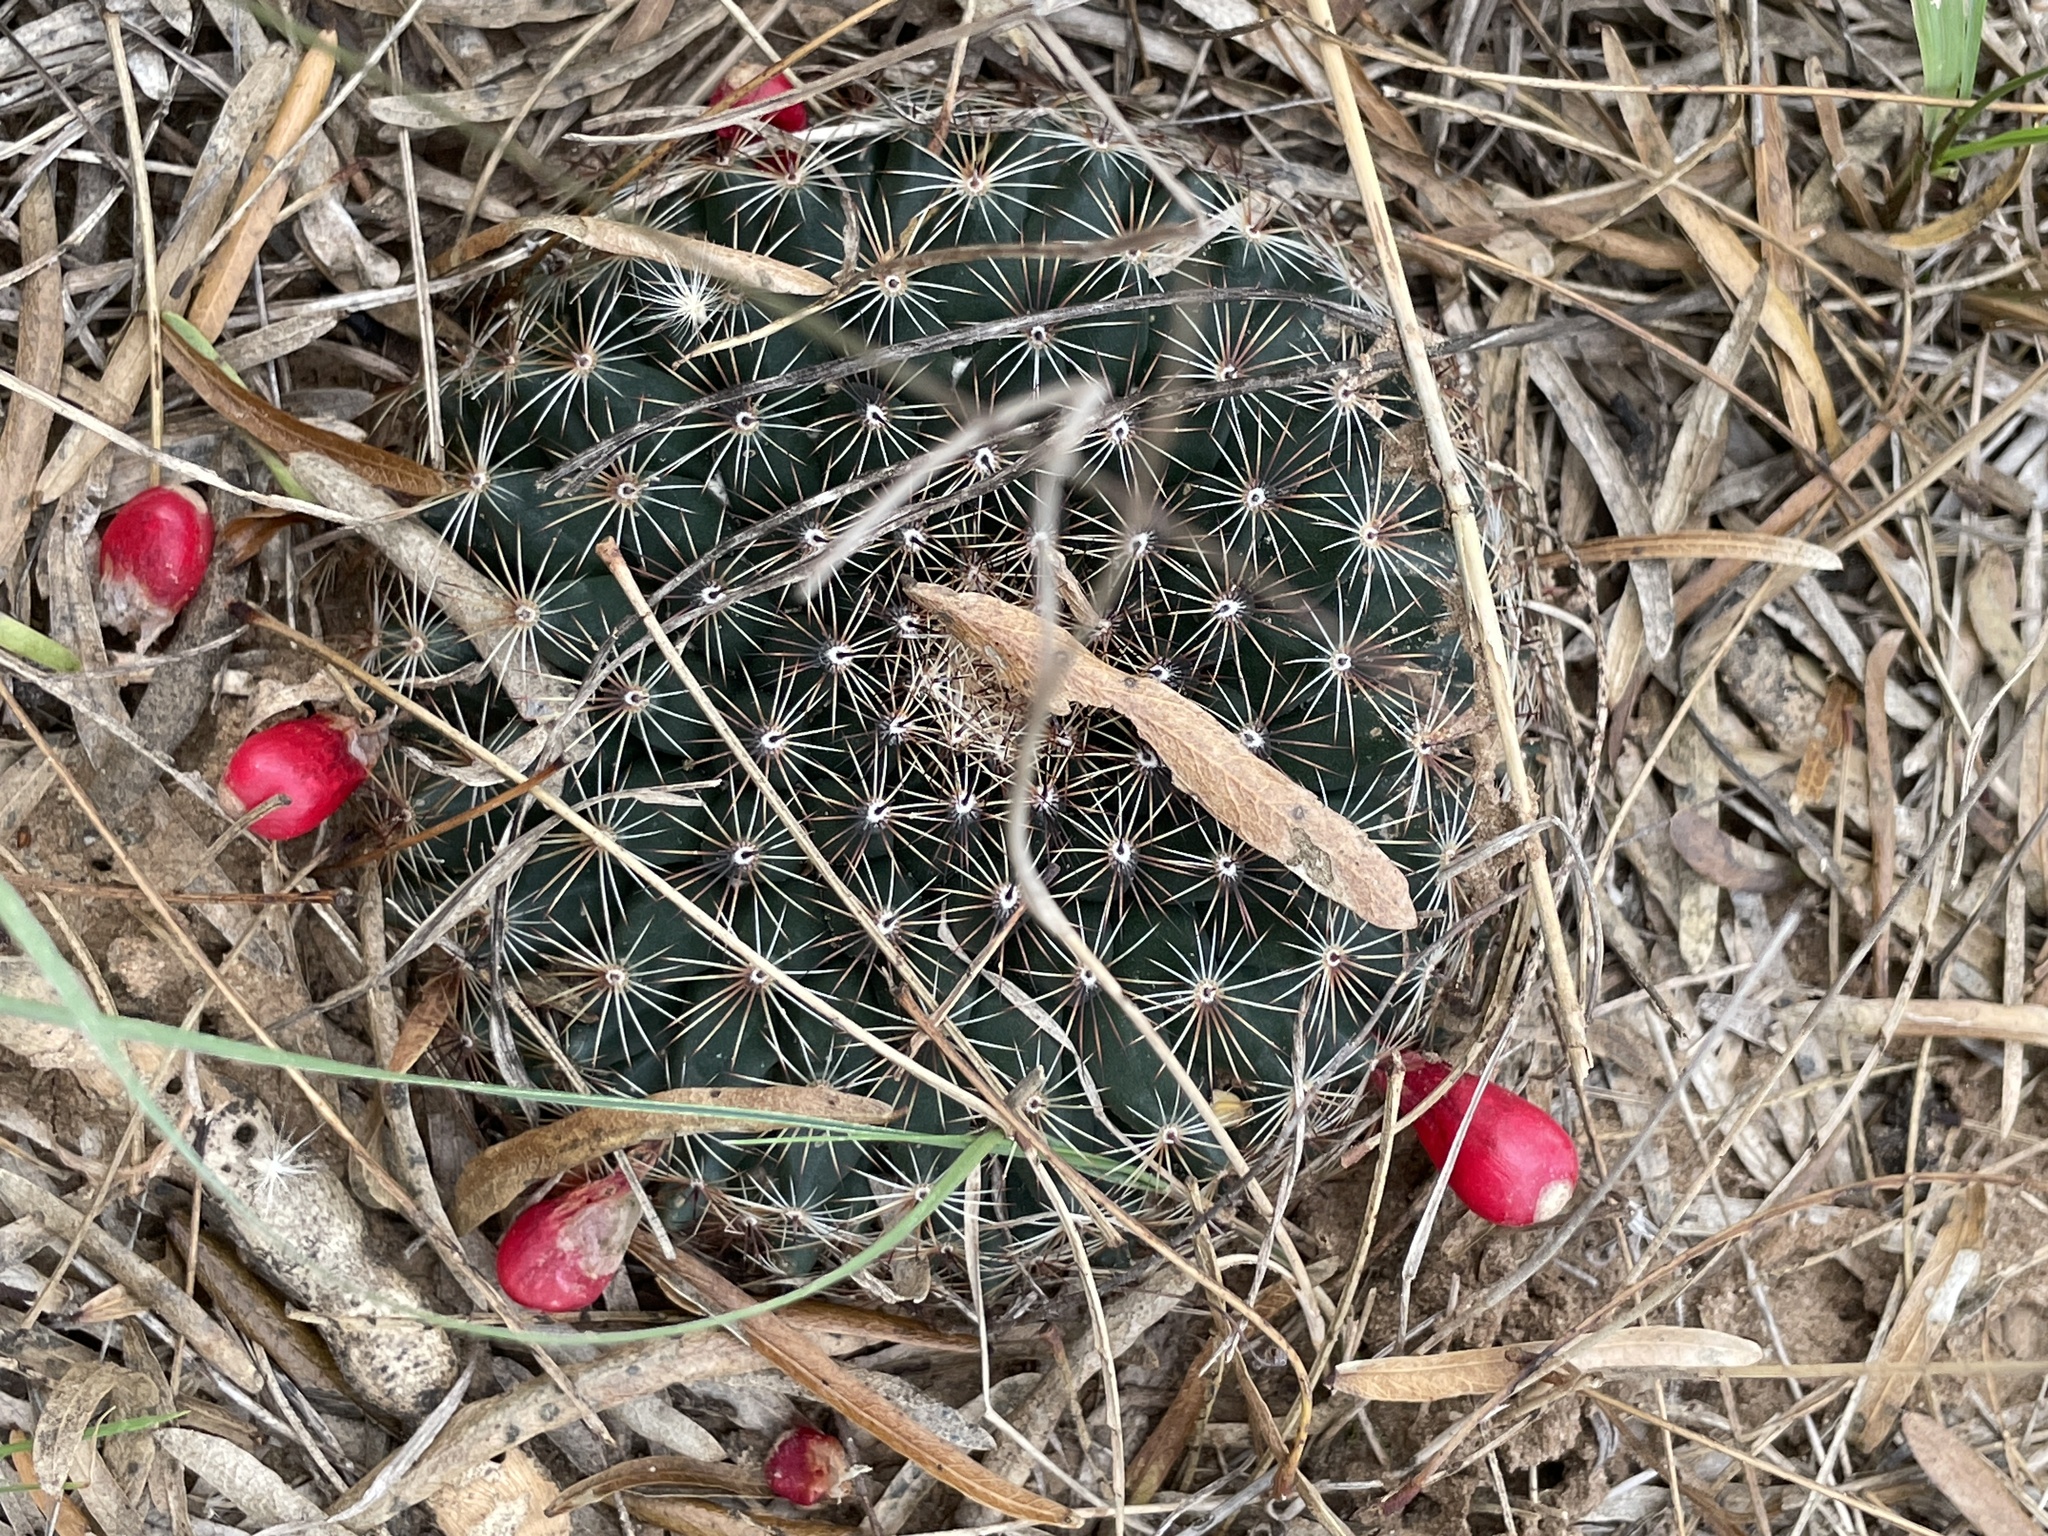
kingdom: Plantae
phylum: Tracheophyta
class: Magnoliopsida
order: Caryophyllales
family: Cactaceae
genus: Mammillaria
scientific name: Mammillaria heyderi
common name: Little nipple cactus
